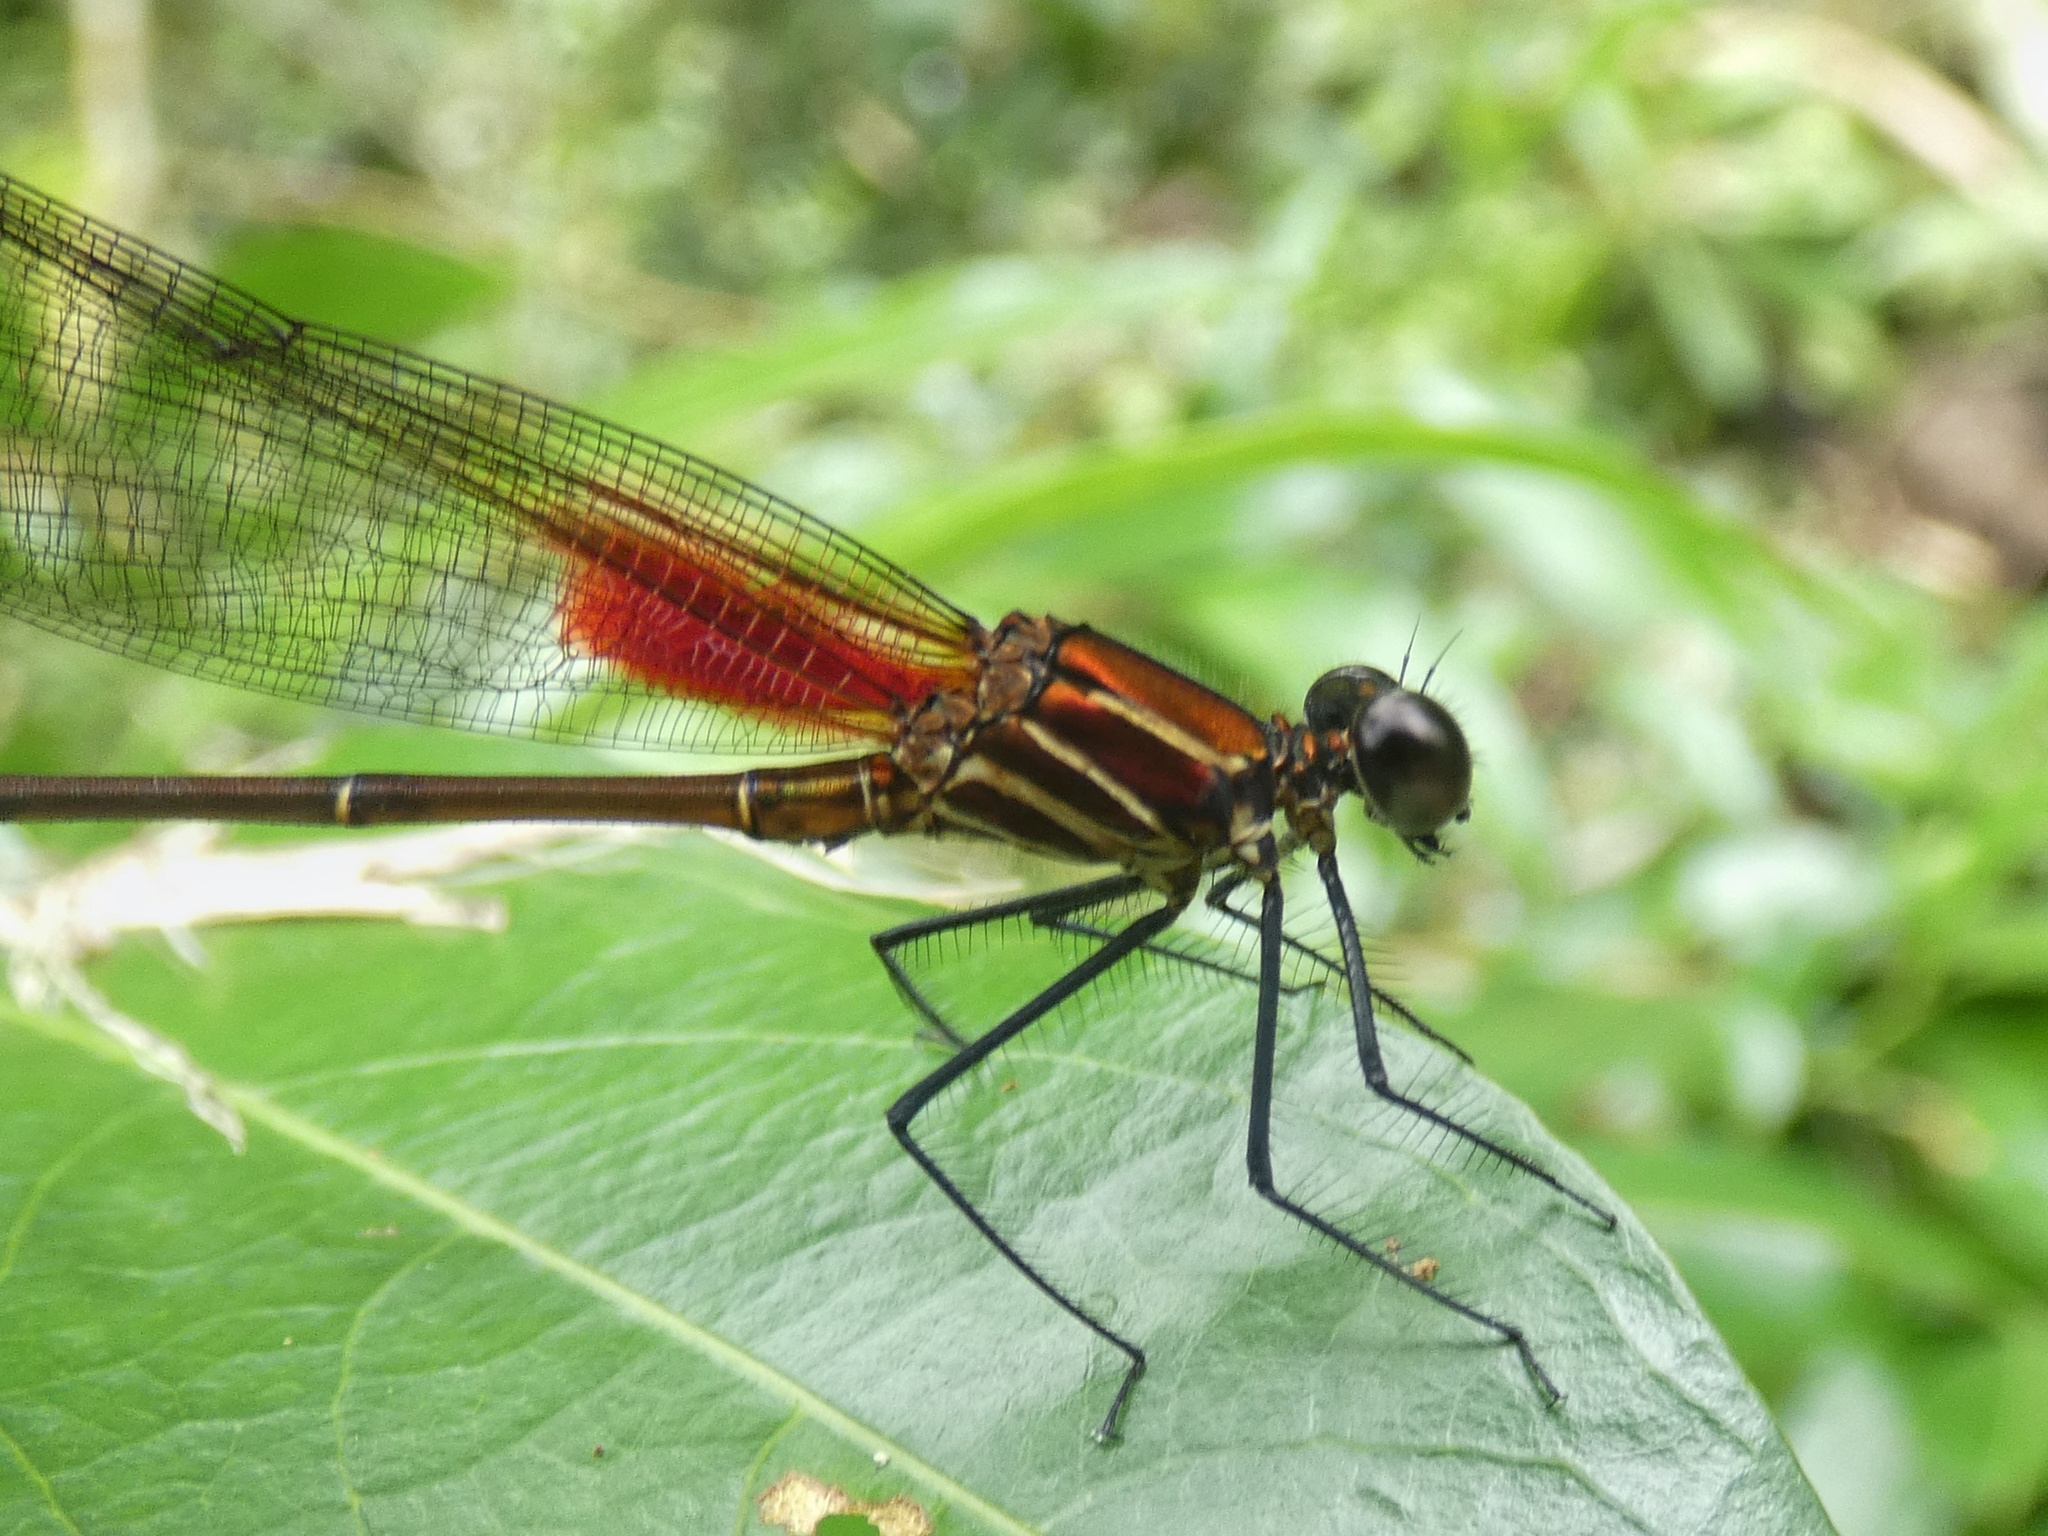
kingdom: Animalia
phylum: Arthropoda
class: Insecta
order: Odonata
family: Calopterygidae
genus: Hetaerina
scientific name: Hetaerina occisa
